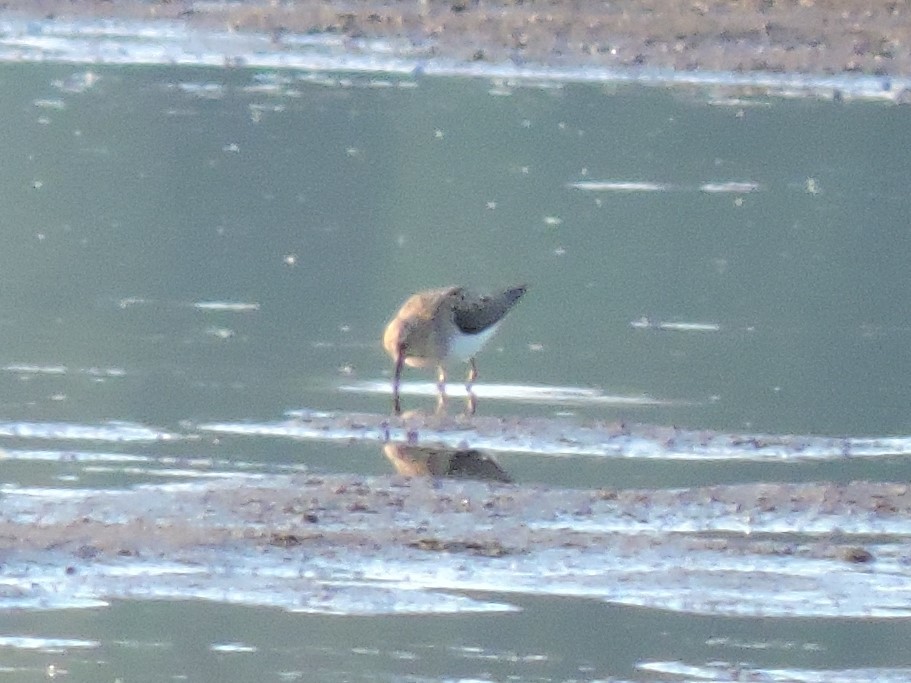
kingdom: Animalia
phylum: Chordata
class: Aves
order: Charadriiformes
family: Scolopacidae
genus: Calidris
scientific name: Calidris temminckii
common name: Temminck's stint
